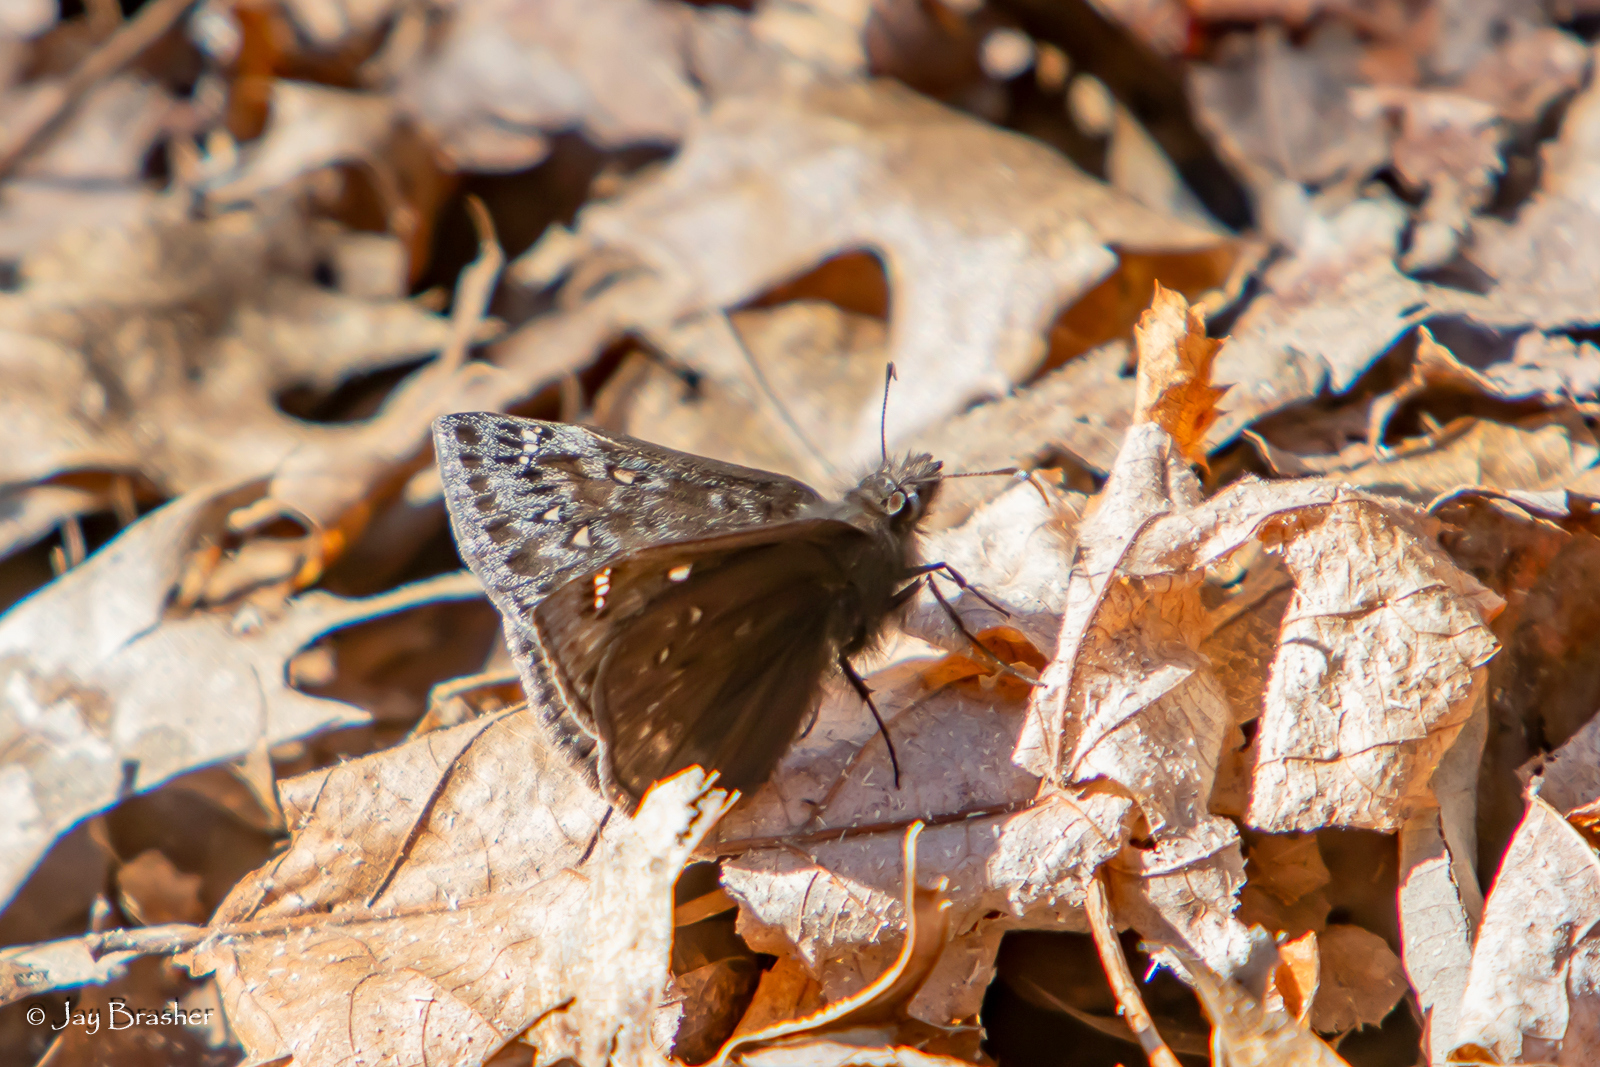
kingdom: Animalia
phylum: Arthropoda
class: Insecta
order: Lepidoptera
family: Hesperiidae
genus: Erynnis
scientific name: Erynnis juvenalis
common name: Juvenal's duskywing
